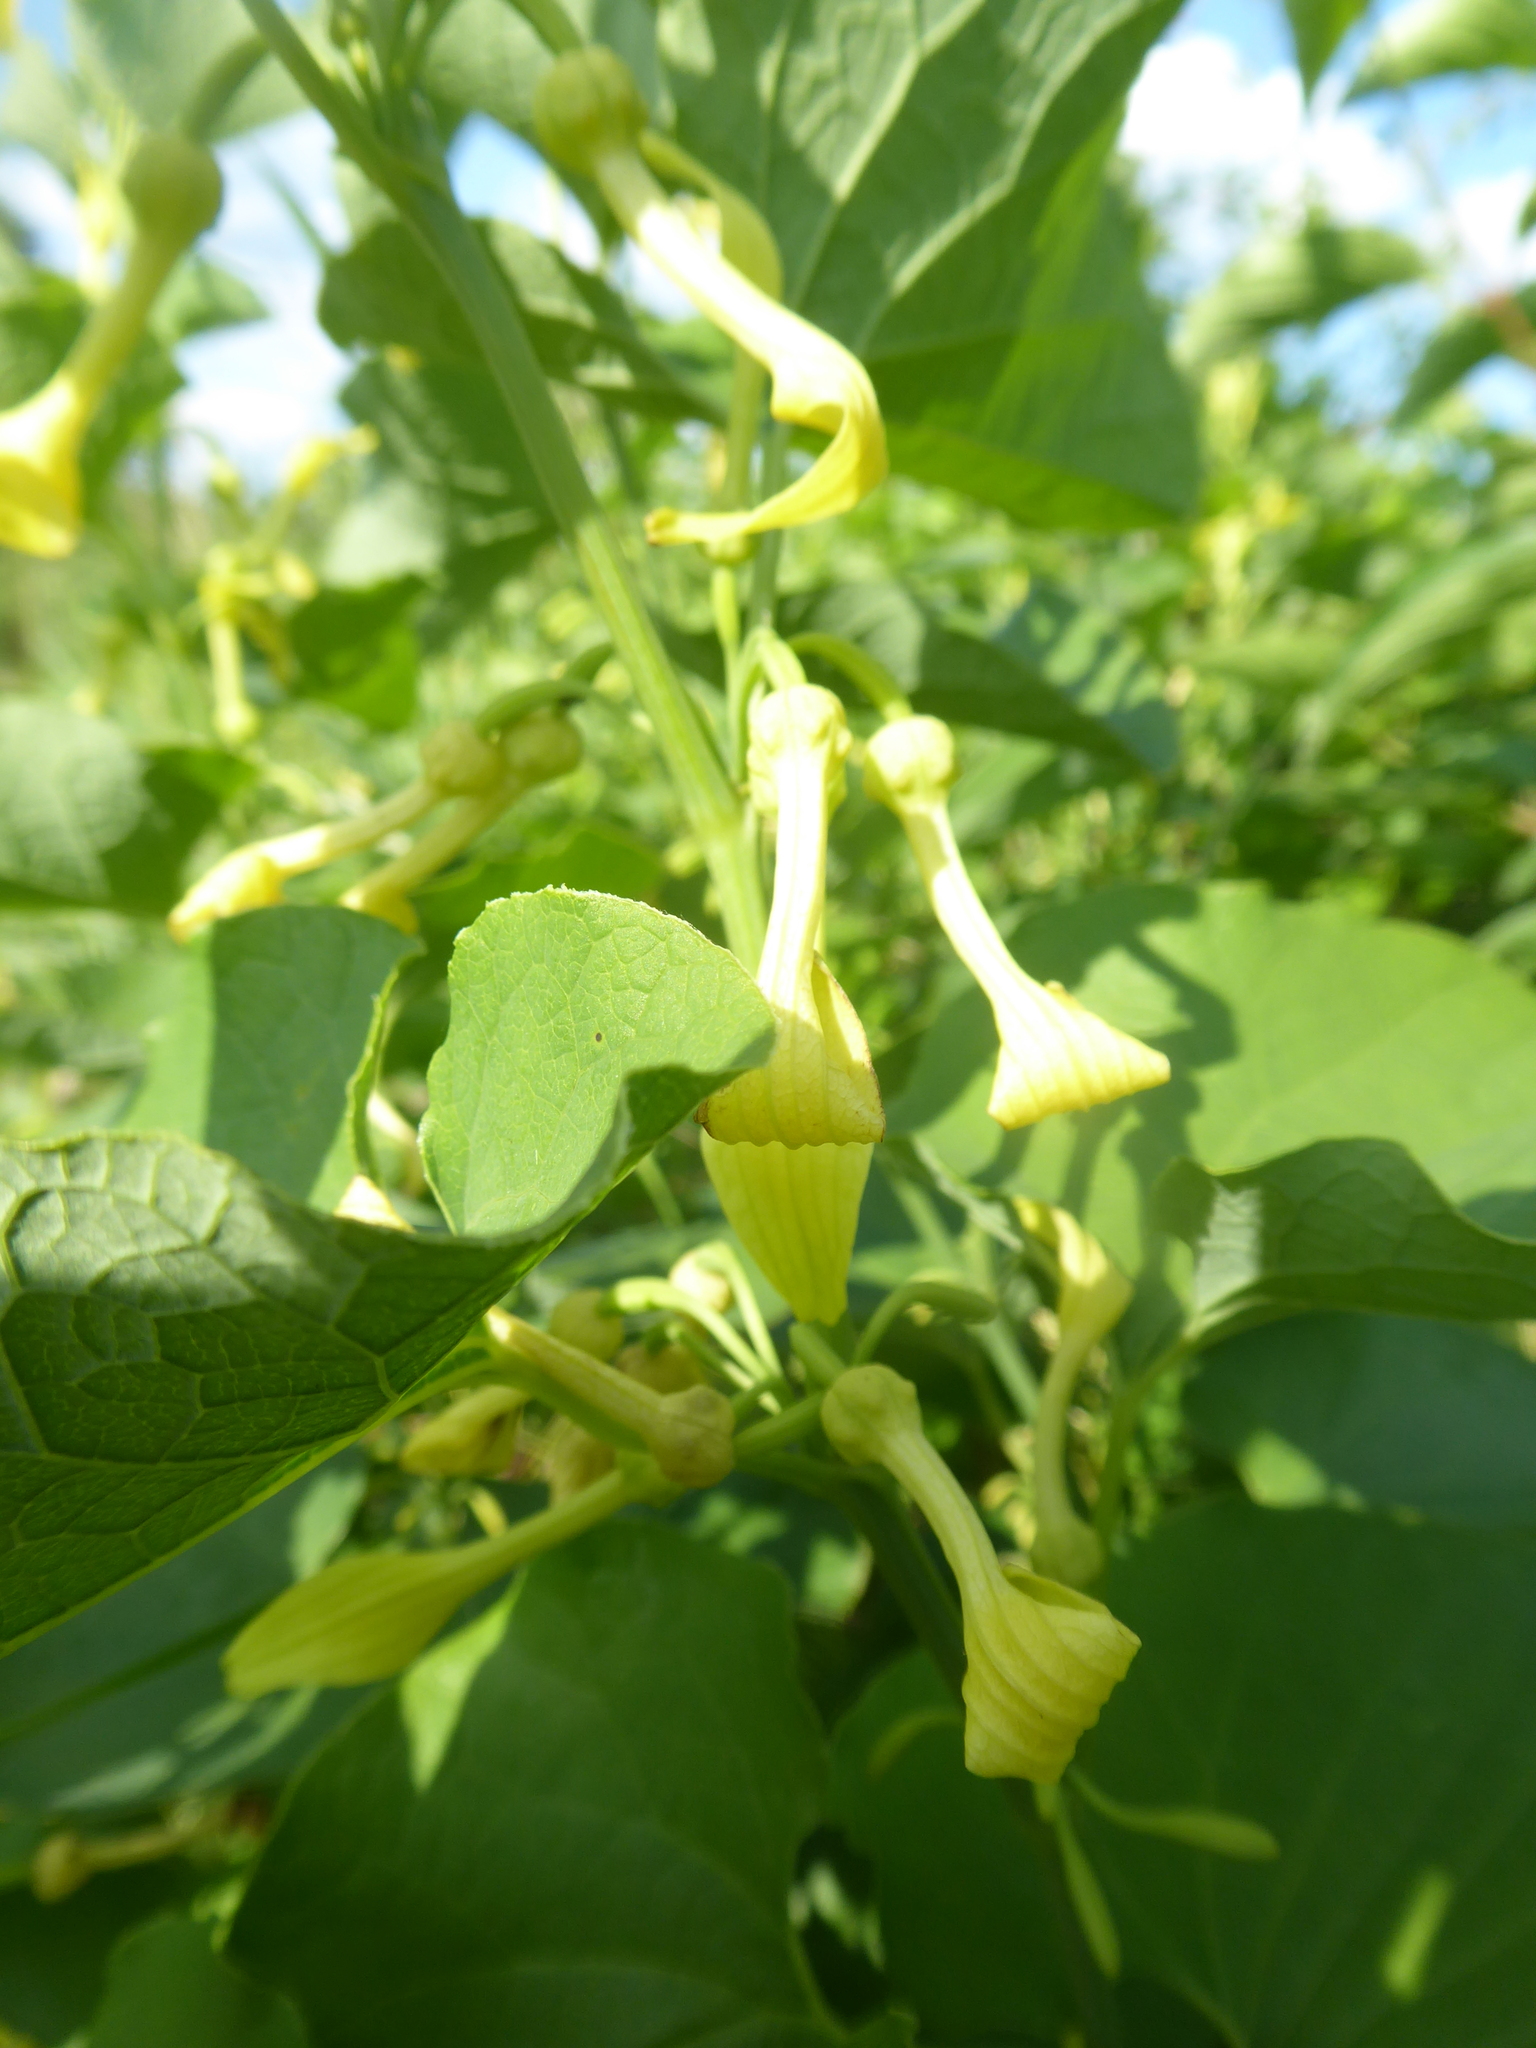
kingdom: Plantae
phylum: Tracheophyta
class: Magnoliopsida
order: Piperales
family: Aristolochiaceae
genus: Aristolochia
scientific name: Aristolochia clematitis
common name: Birthwort
